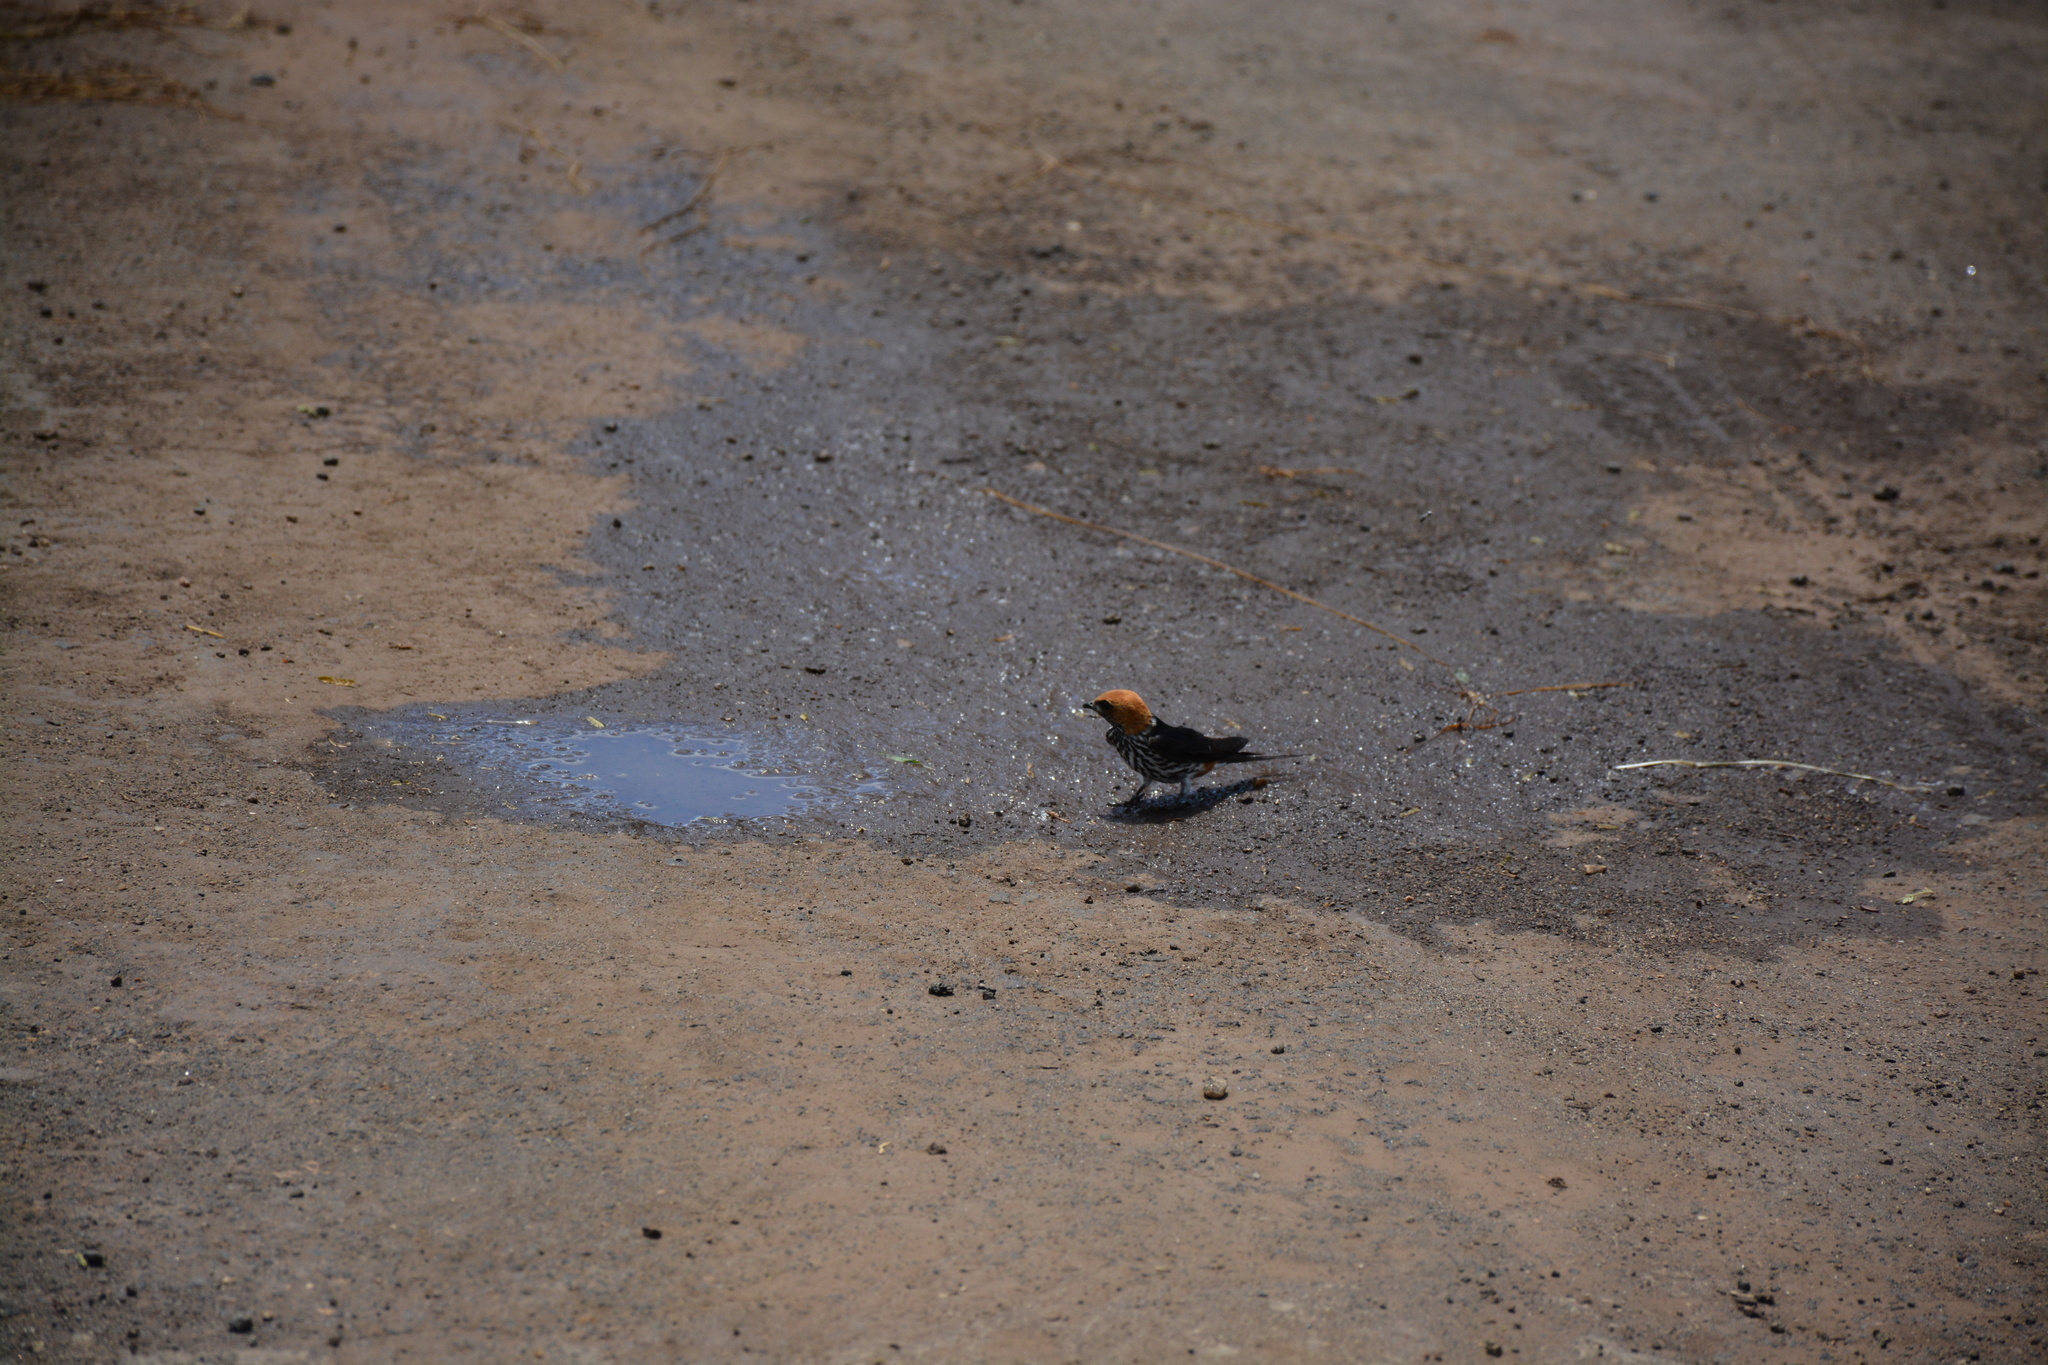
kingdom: Animalia
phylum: Chordata
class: Aves
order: Passeriformes
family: Hirundinidae
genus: Cecropis
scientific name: Cecropis abyssinica
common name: Lesser striped-swallow
